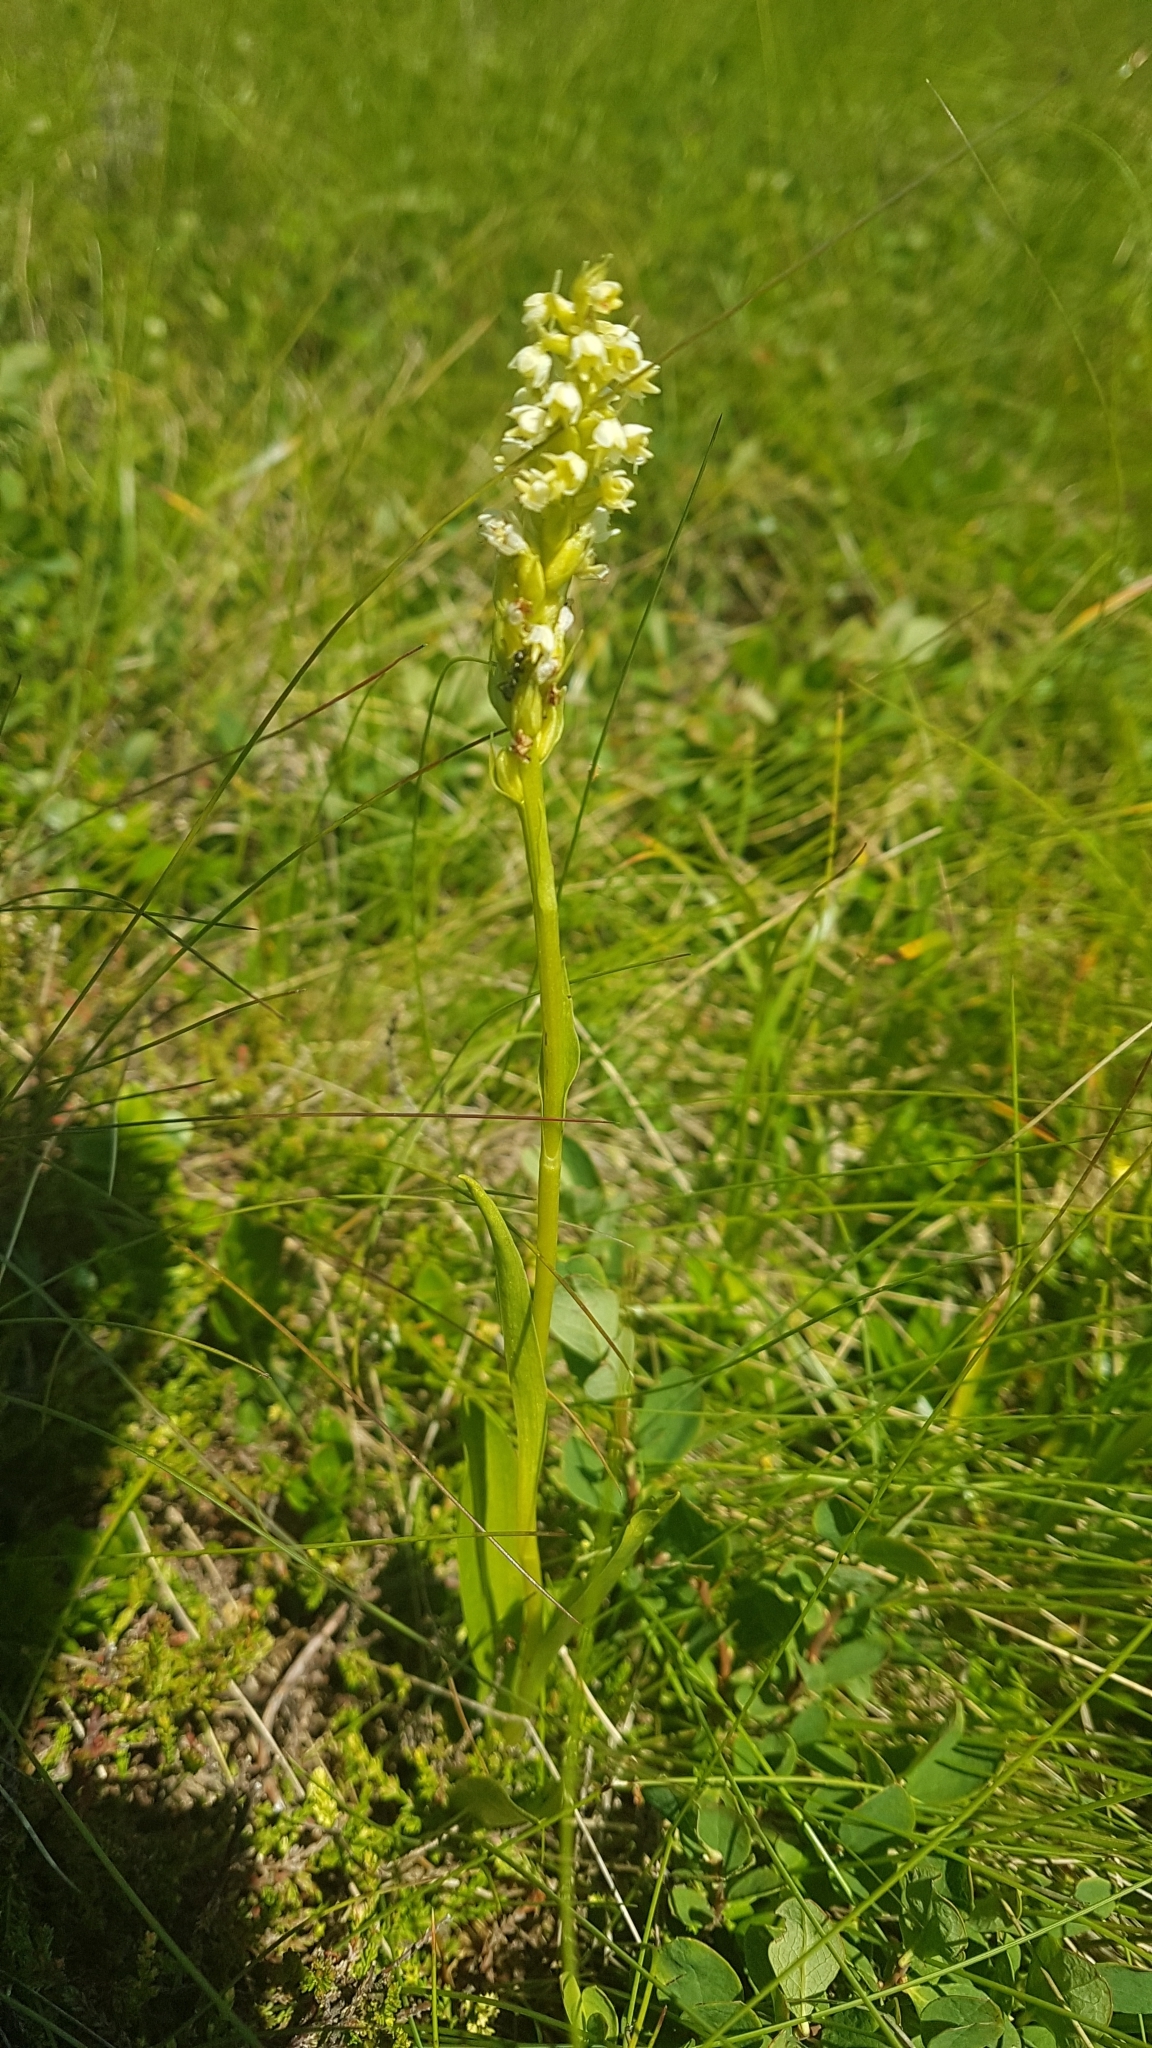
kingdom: Plantae
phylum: Tracheophyta
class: Liliopsida
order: Asparagales
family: Orchidaceae
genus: Pseudorchis
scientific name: Pseudorchis albida
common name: Small-white orchid
